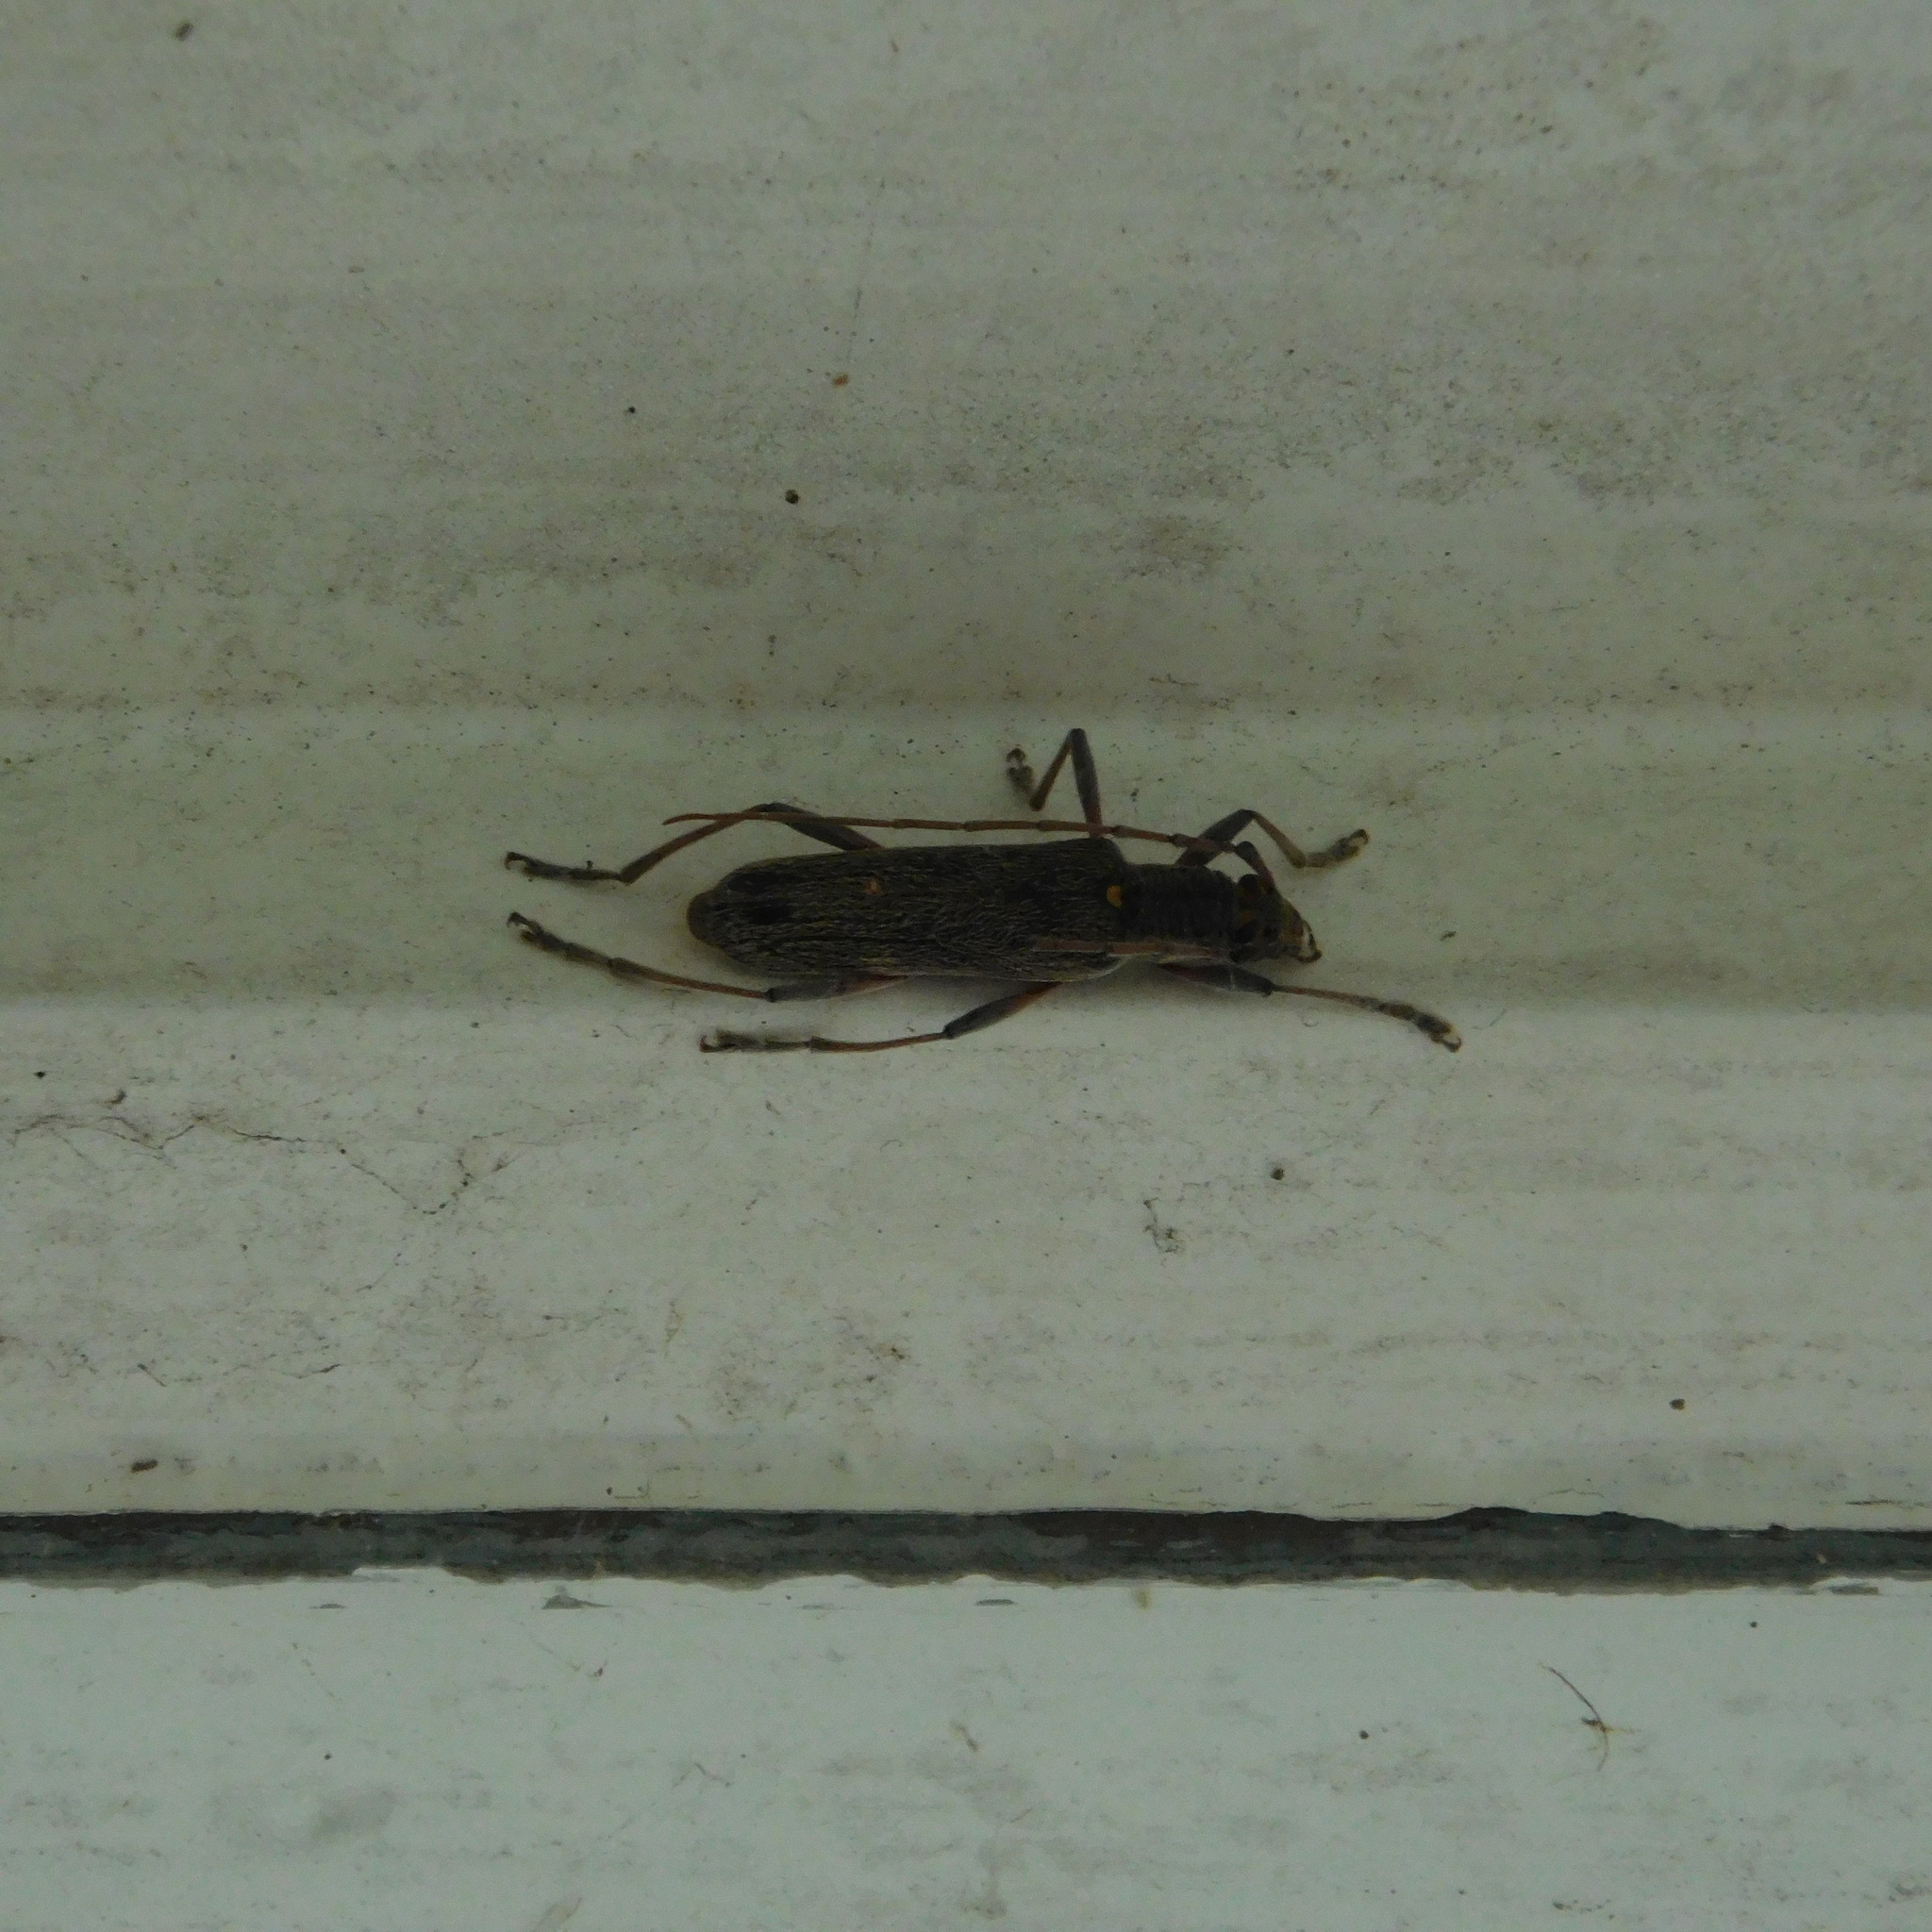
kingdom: Animalia
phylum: Arthropoda
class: Insecta
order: Coleoptera
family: Cerambycidae
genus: Oemona
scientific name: Oemona hirta
